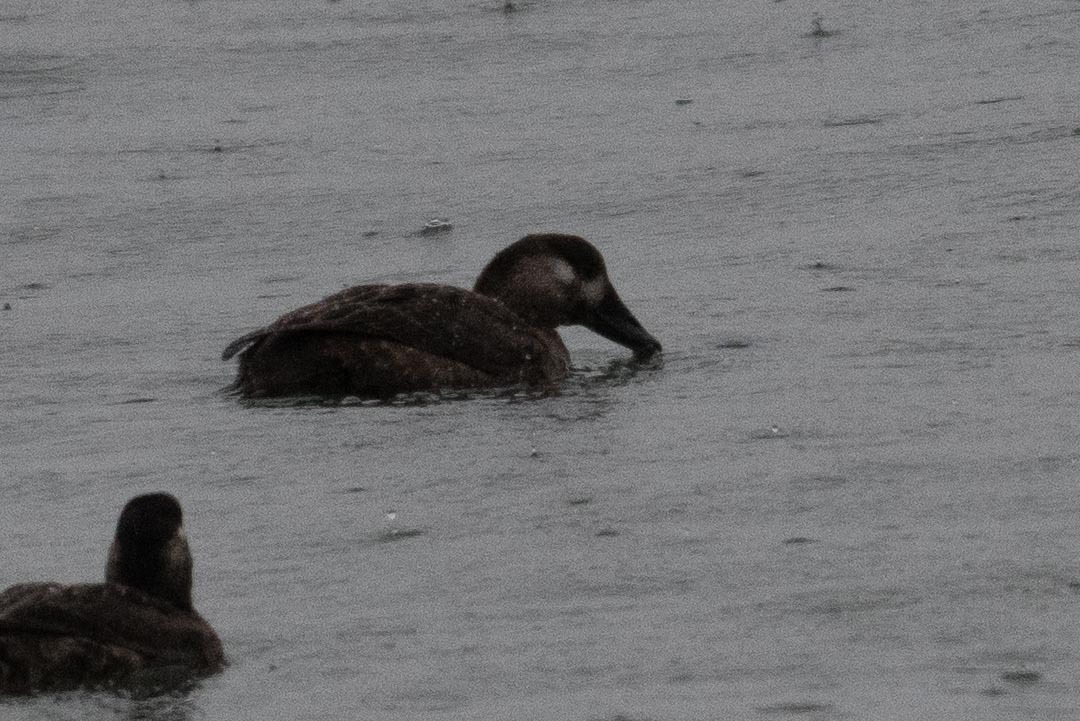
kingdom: Animalia
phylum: Chordata
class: Aves
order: Anseriformes
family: Anatidae
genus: Melanitta
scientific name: Melanitta perspicillata
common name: Surf scoter
